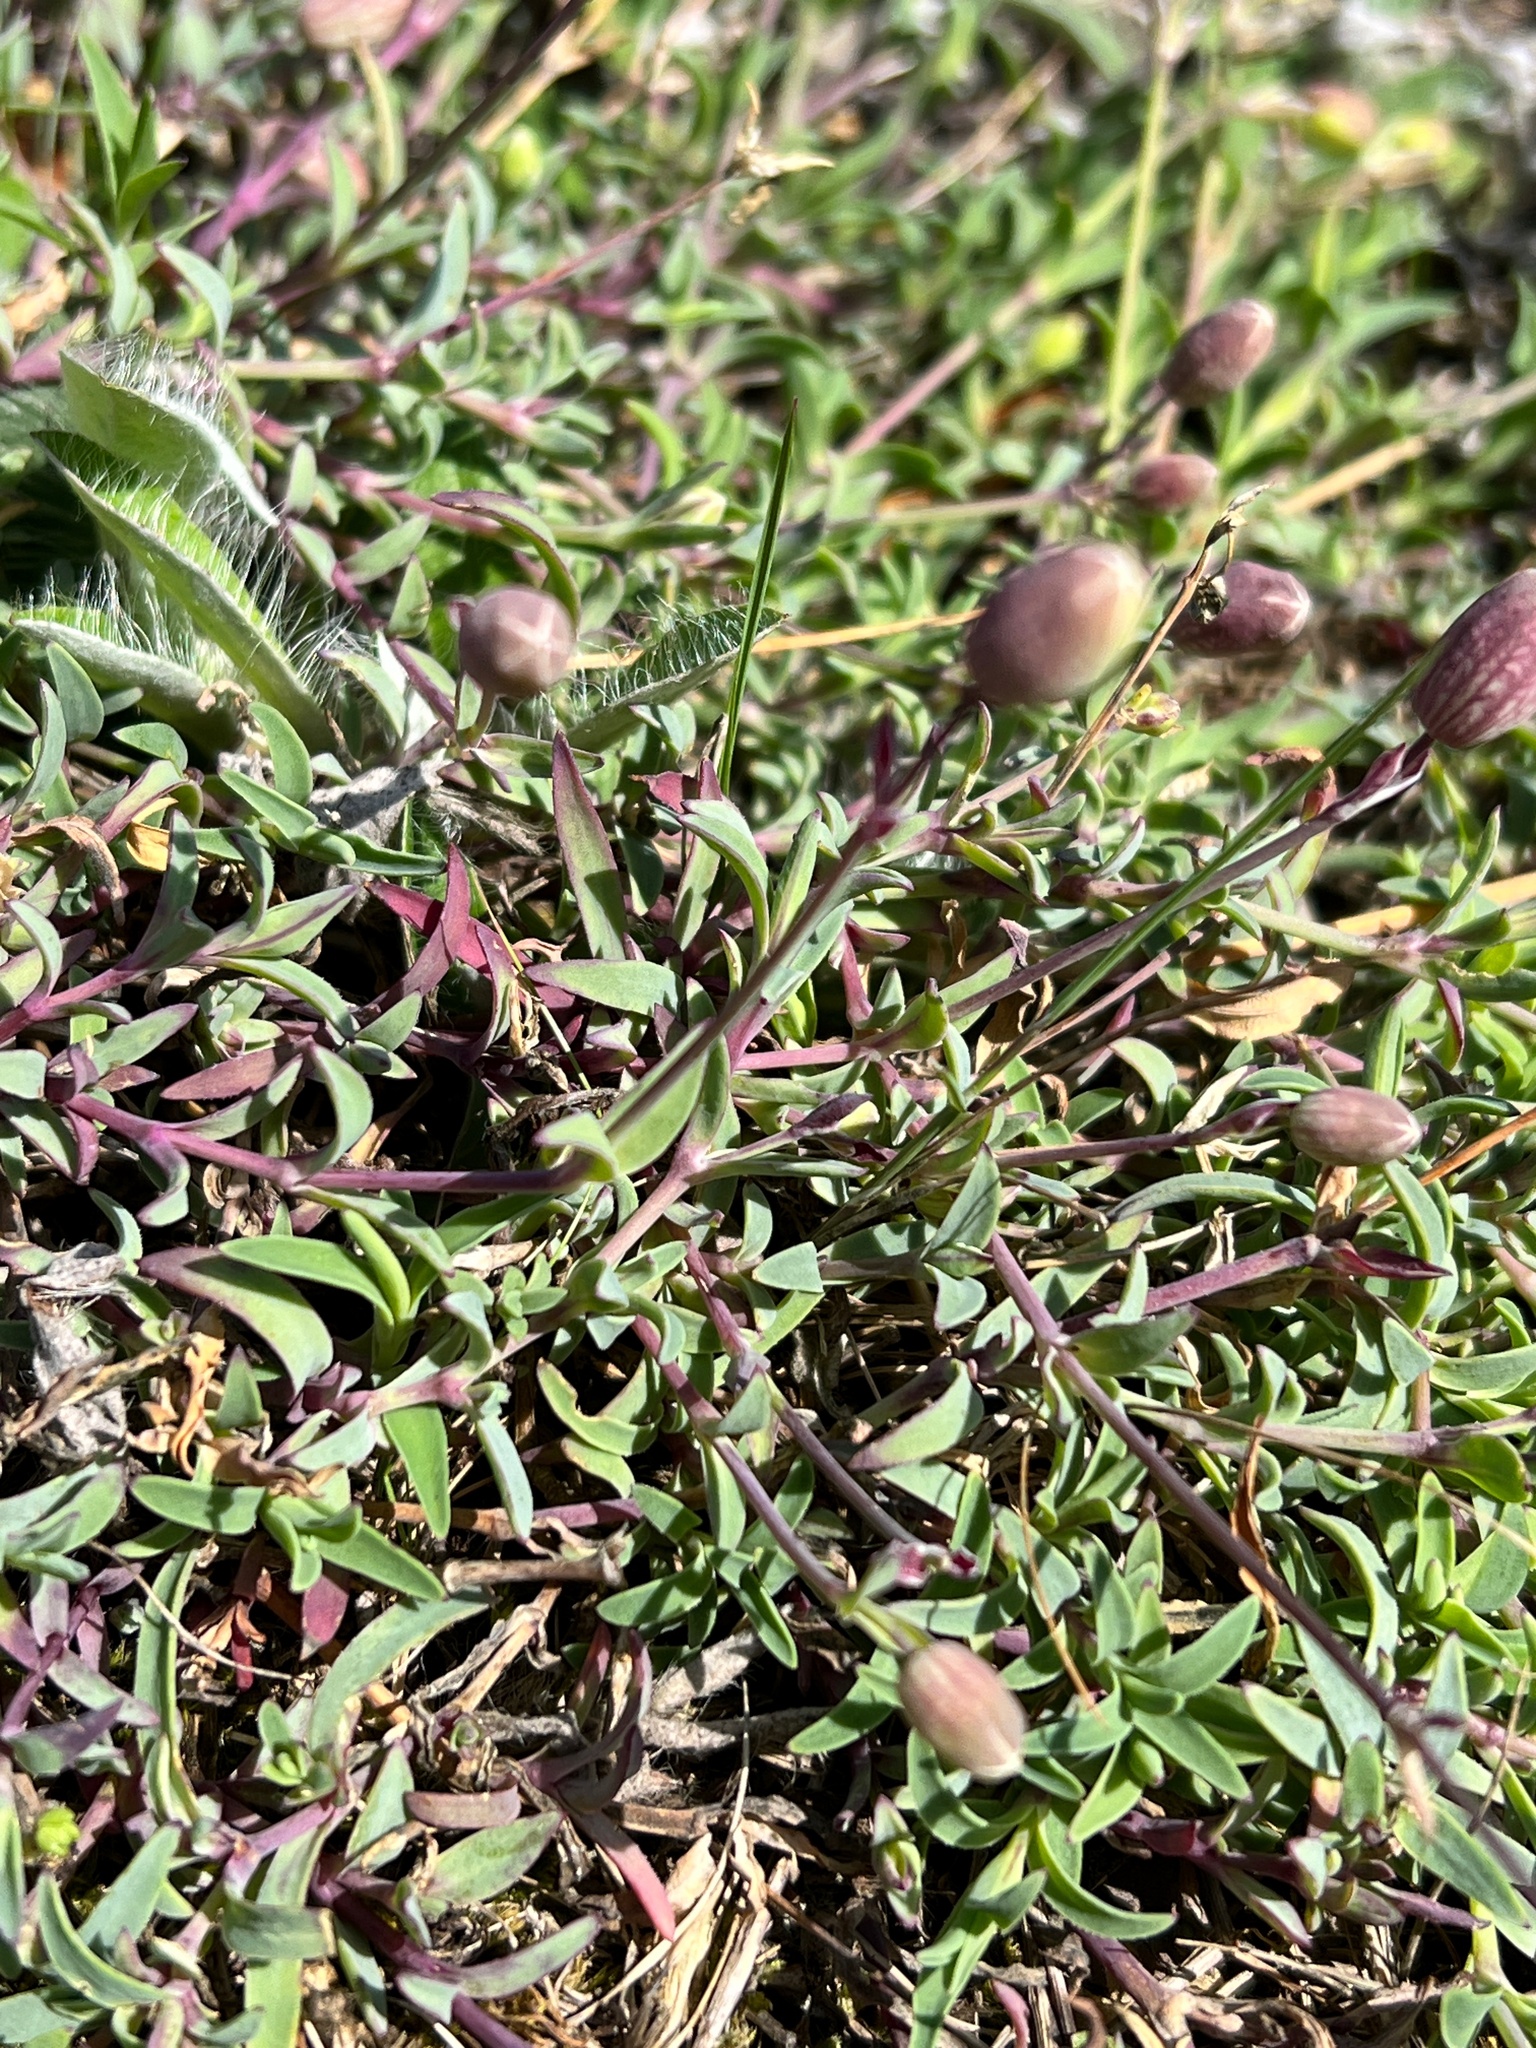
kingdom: Plantae
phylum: Tracheophyta
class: Magnoliopsida
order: Caryophyllales
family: Caryophyllaceae
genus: Silene
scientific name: Silene uniflora
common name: Sea campion
